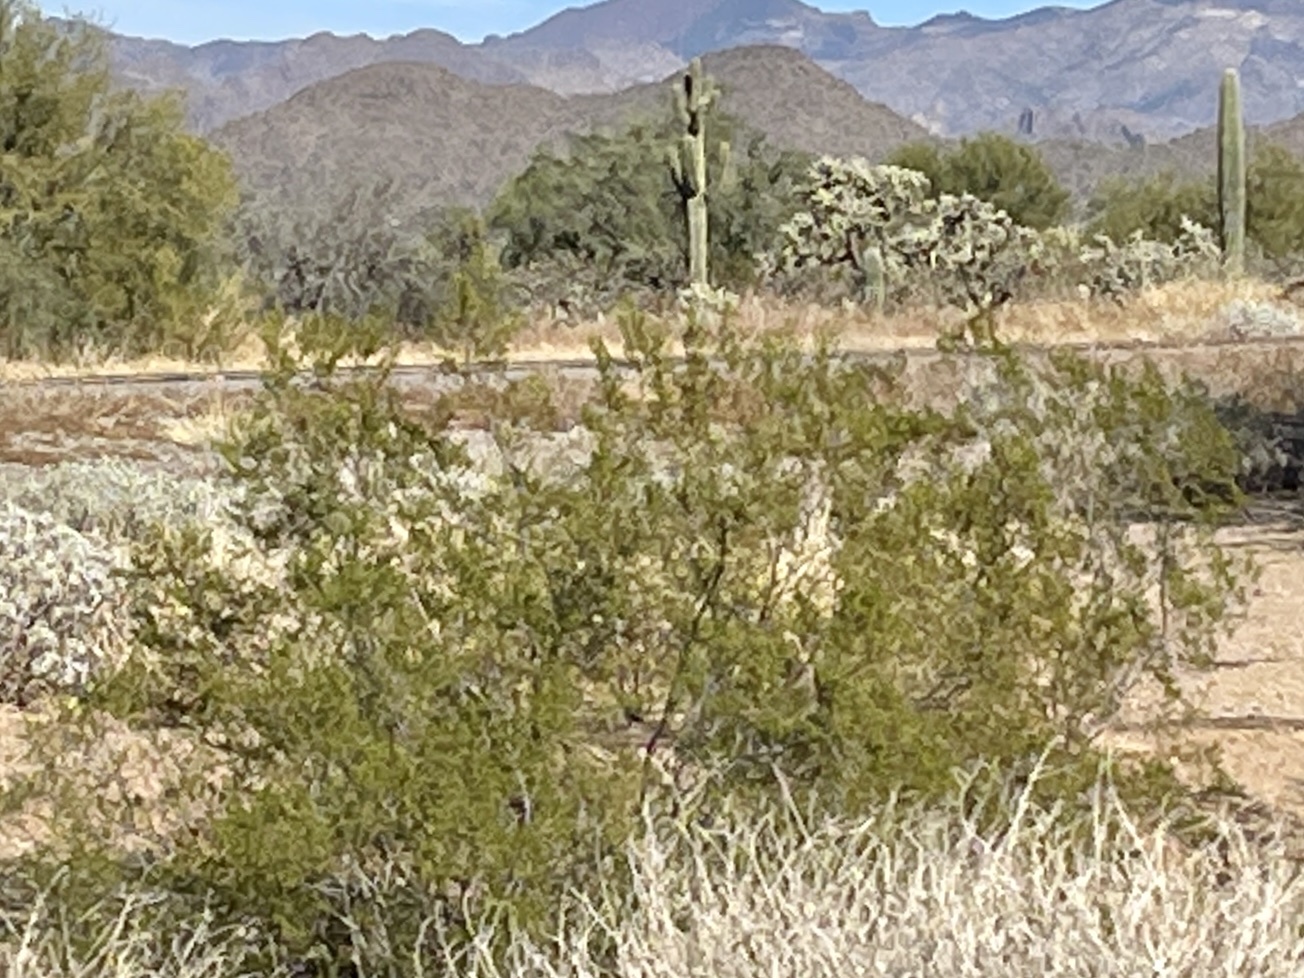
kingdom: Plantae
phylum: Tracheophyta
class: Magnoliopsida
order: Zygophyllales
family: Zygophyllaceae
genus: Larrea
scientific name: Larrea tridentata
